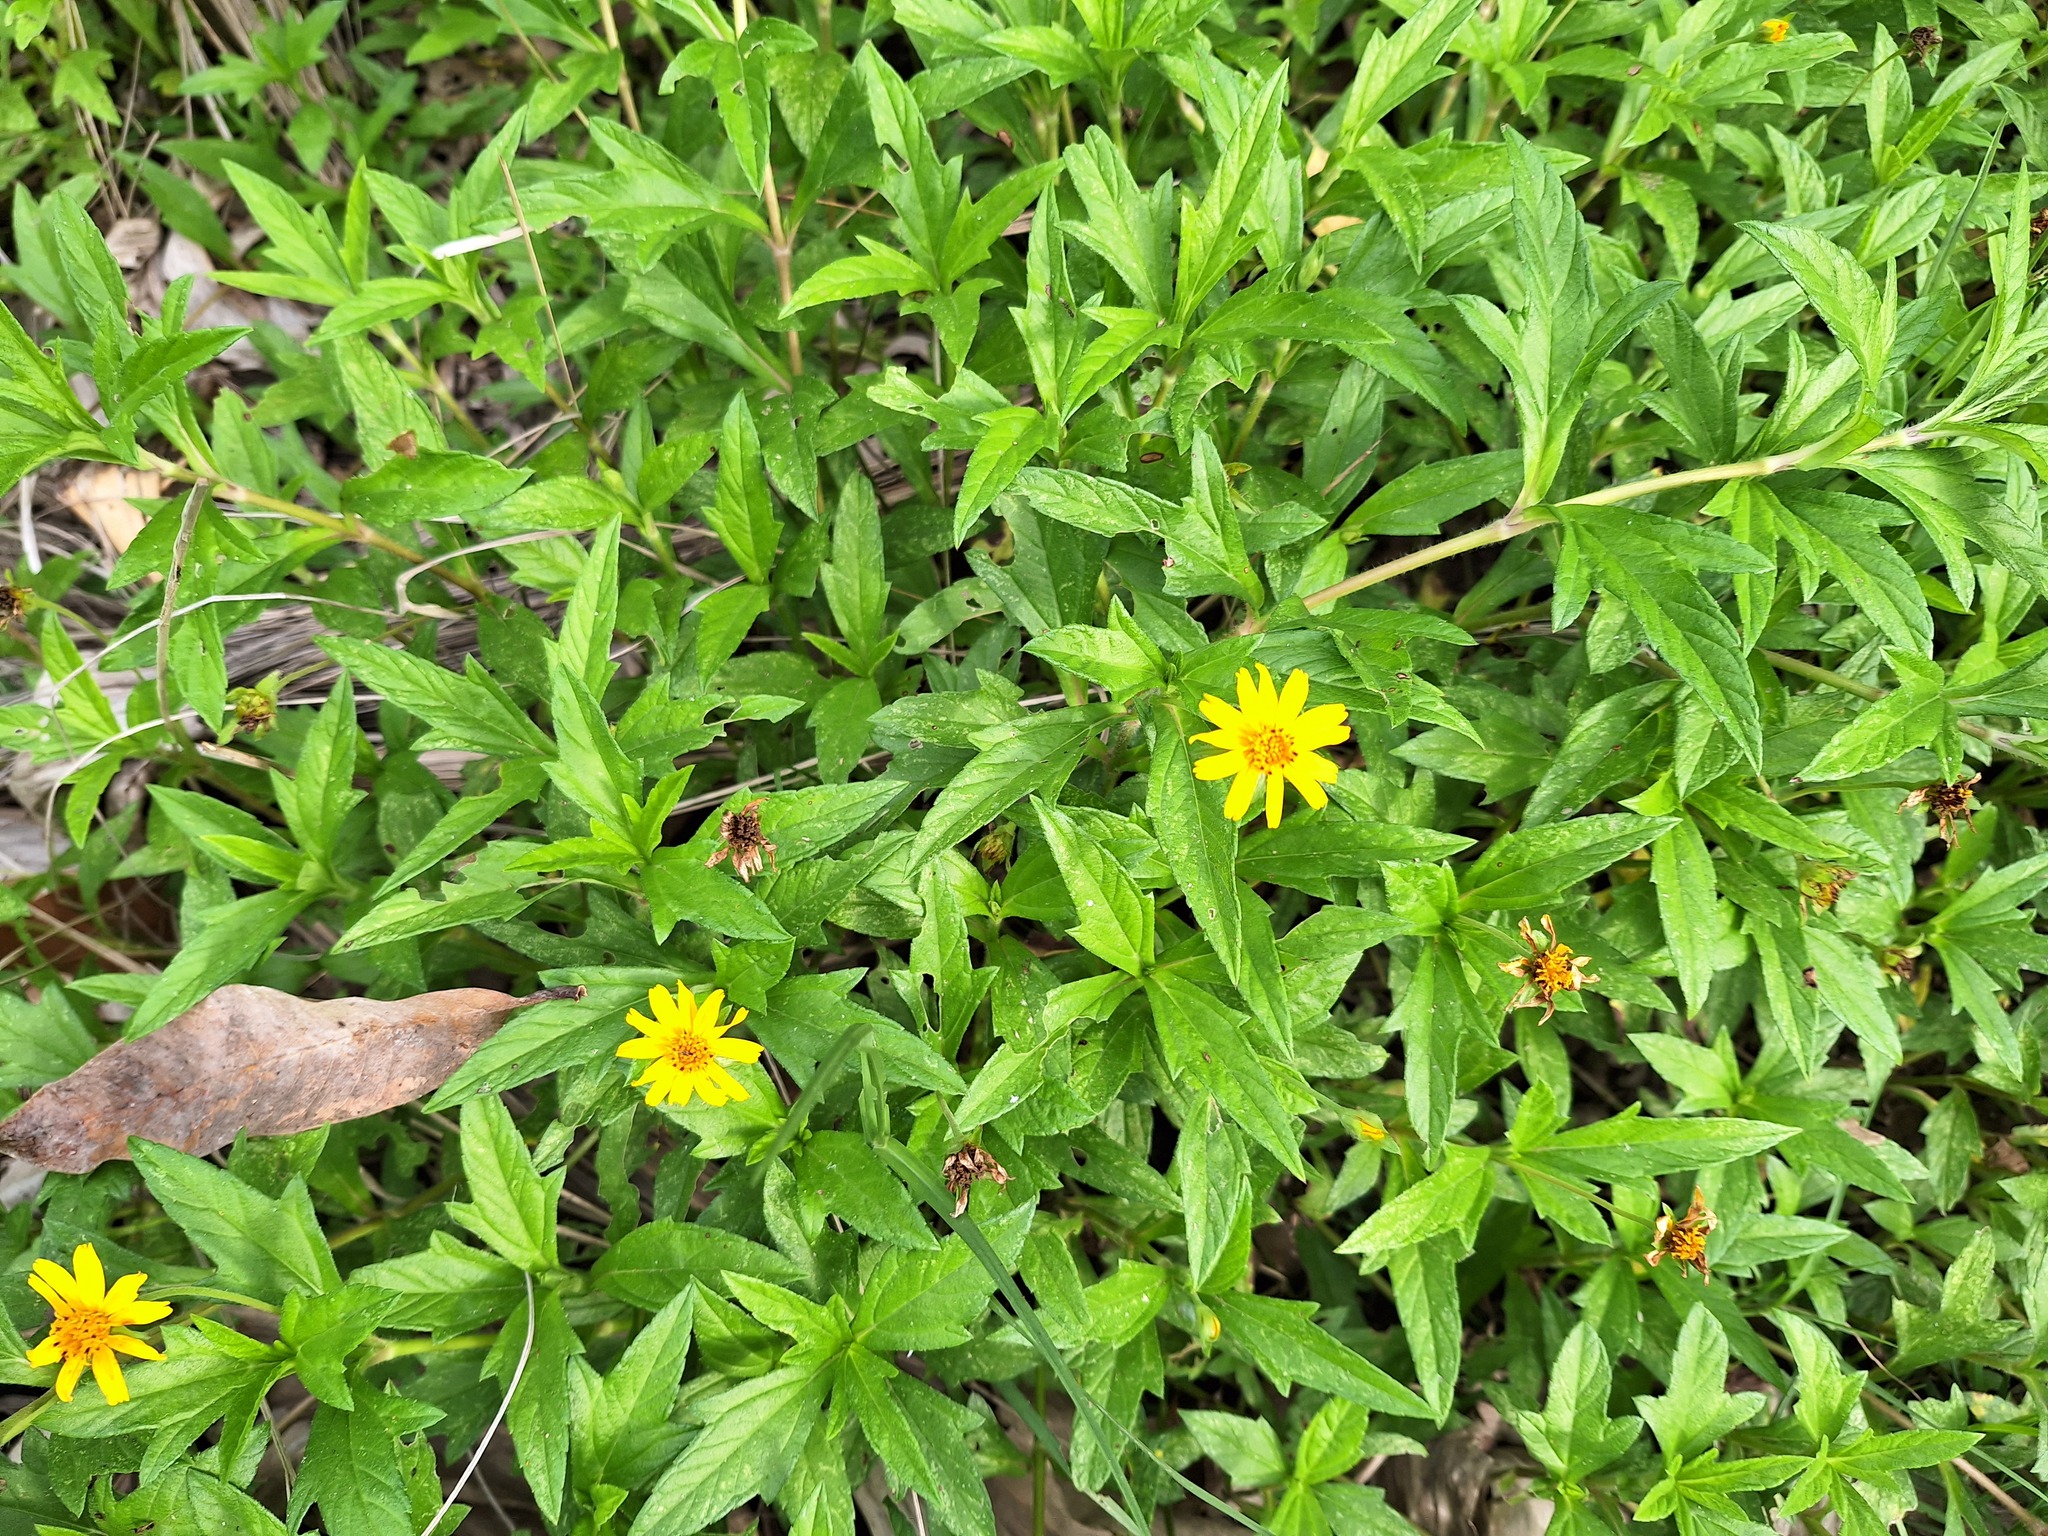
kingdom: Plantae
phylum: Tracheophyta
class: Magnoliopsida
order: Asterales
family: Asteraceae
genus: Sphagneticola
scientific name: Sphagneticola trilobata
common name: Bay biscayne creeping-oxeye
